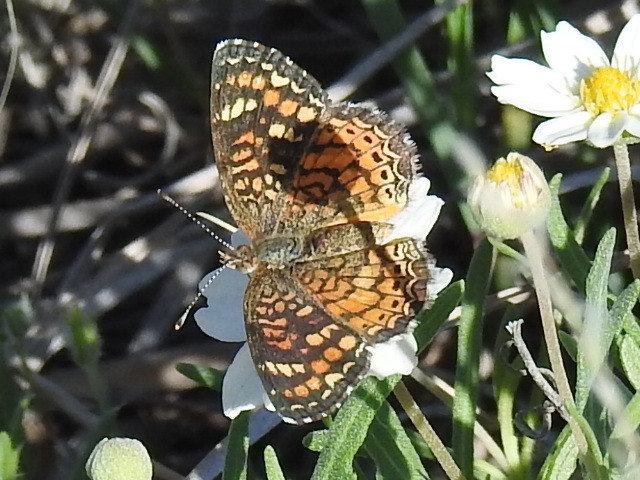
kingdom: Animalia
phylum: Arthropoda
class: Insecta
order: Lepidoptera
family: Nymphalidae
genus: Phyciodes
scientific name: Phyciodes vesta
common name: Vesta crescent
